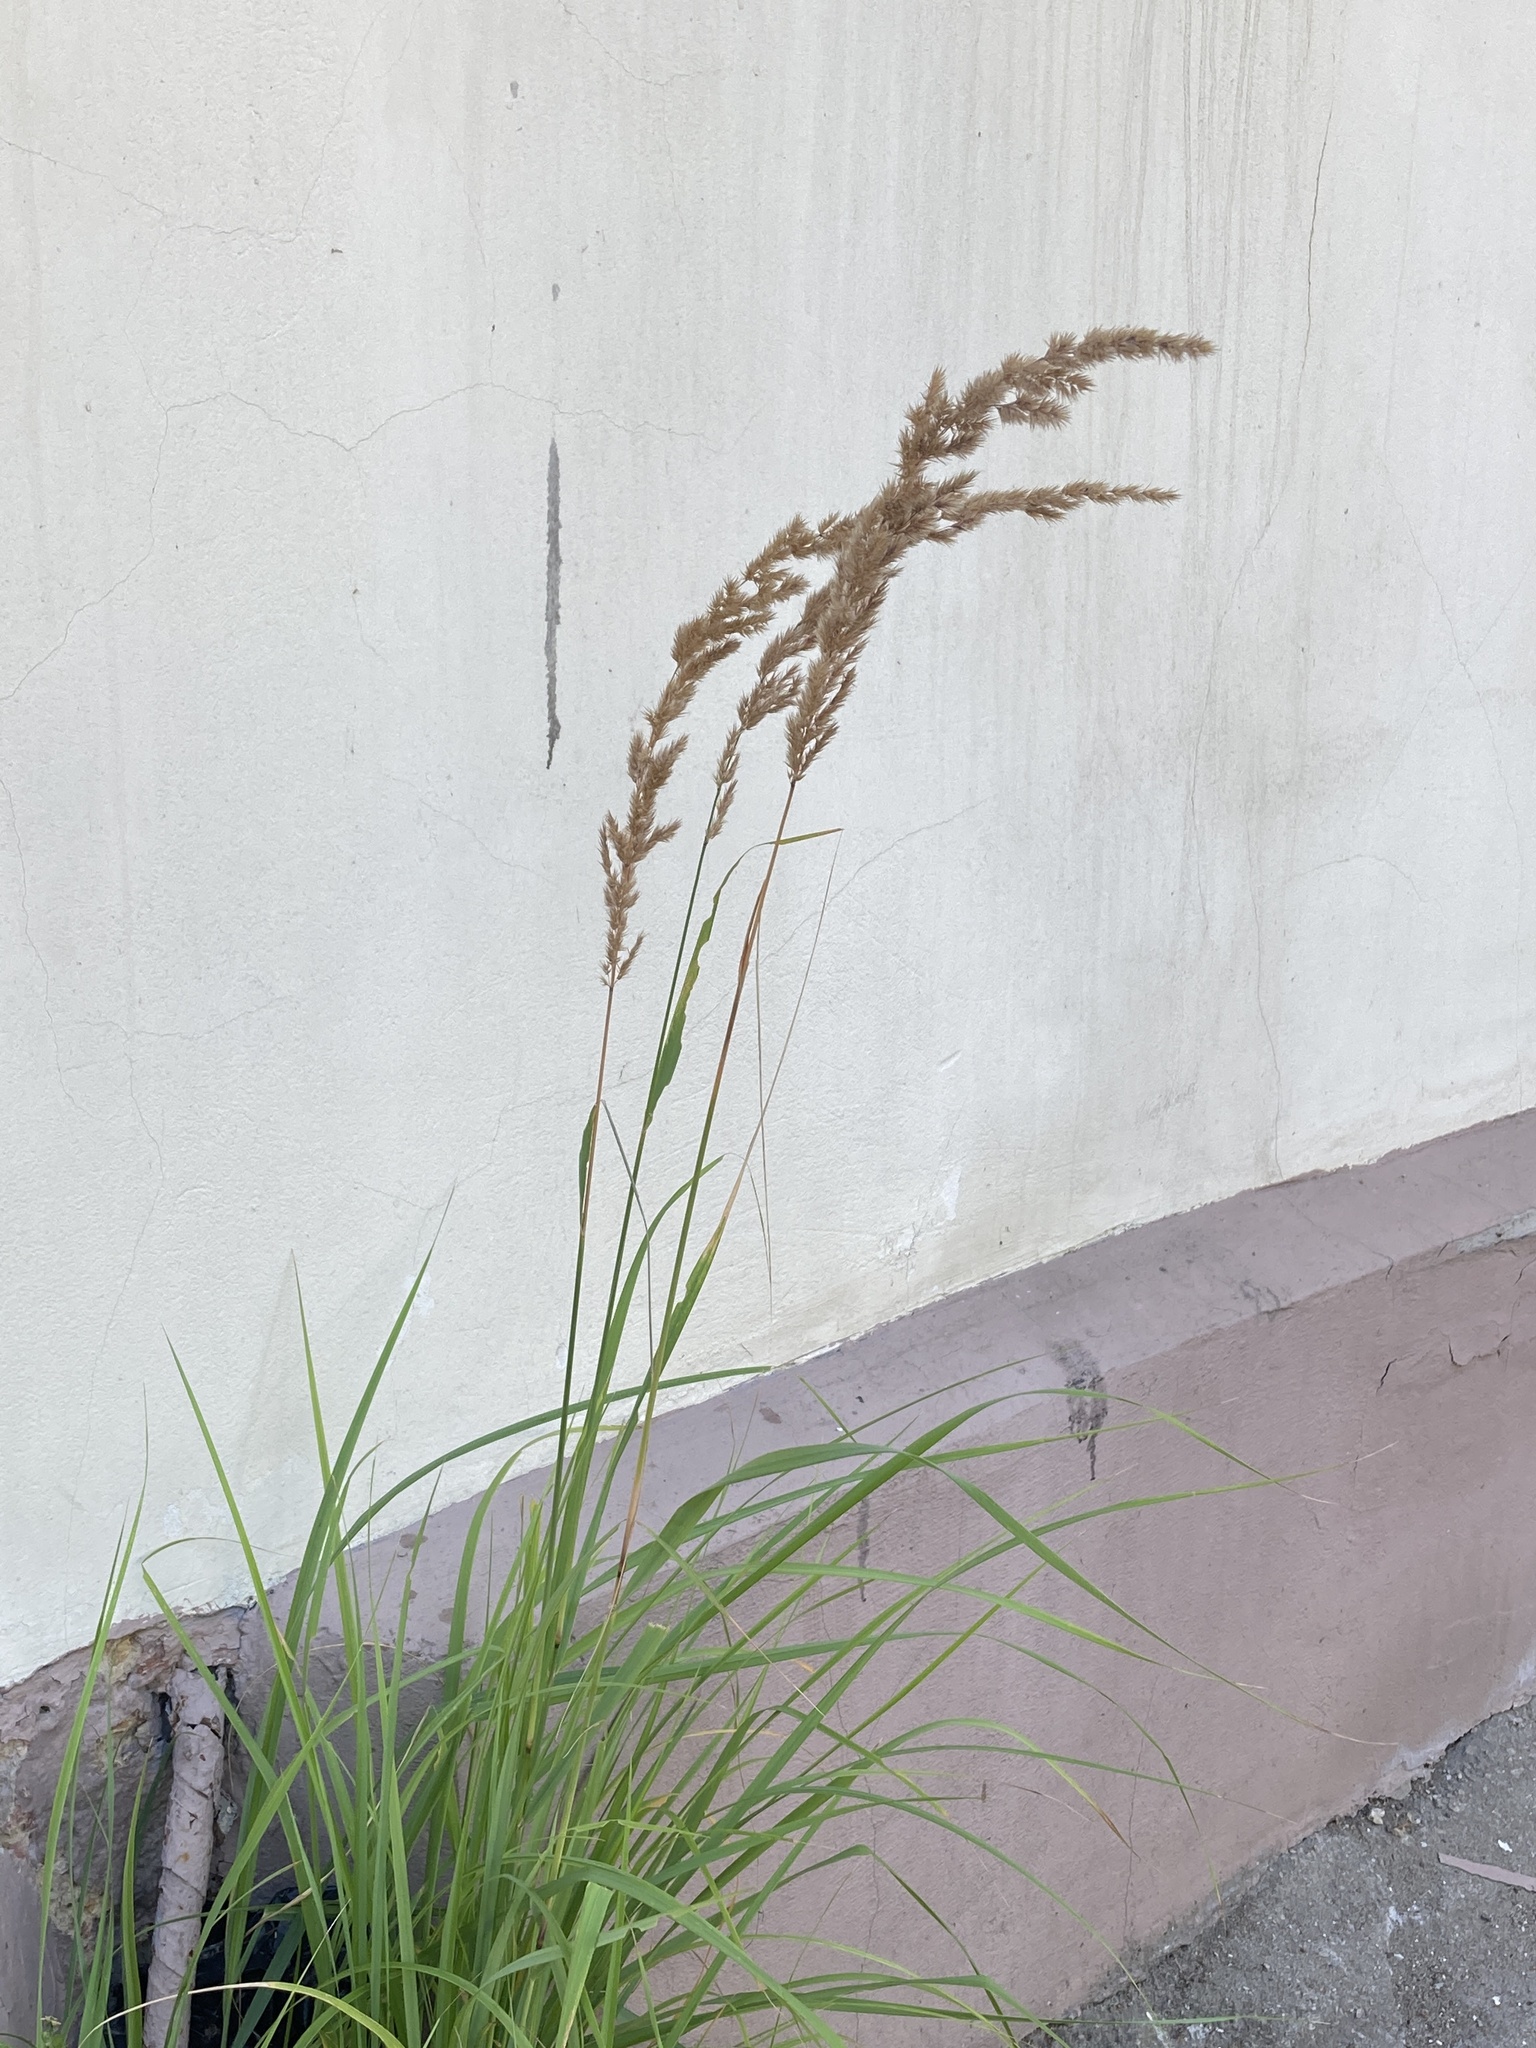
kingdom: Plantae
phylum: Tracheophyta
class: Liliopsida
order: Poales
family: Poaceae
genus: Calamagrostis
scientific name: Calamagrostis epigejos
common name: Wood small-reed
